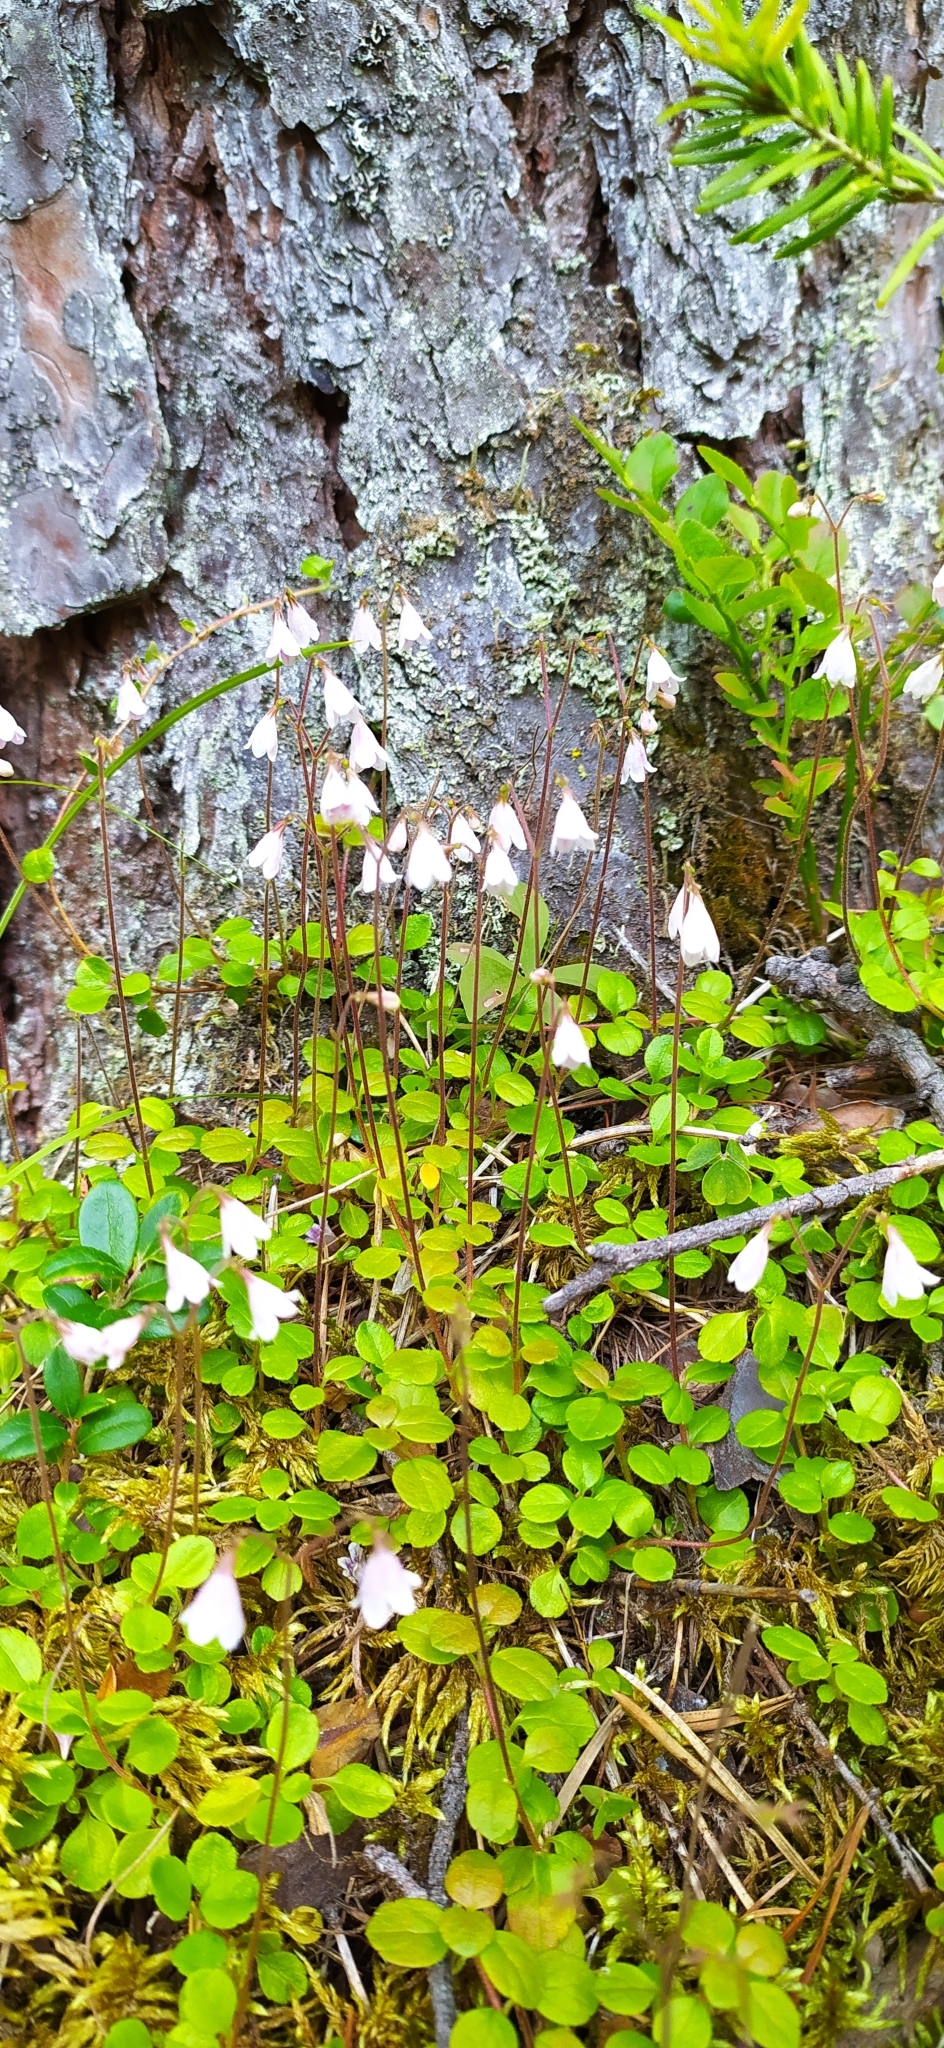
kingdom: Plantae
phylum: Tracheophyta
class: Magnoliopsida
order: Dipsacales
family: Caprifoliaceae
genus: Linnaea
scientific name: Linnaea borealis
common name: Twinflower
